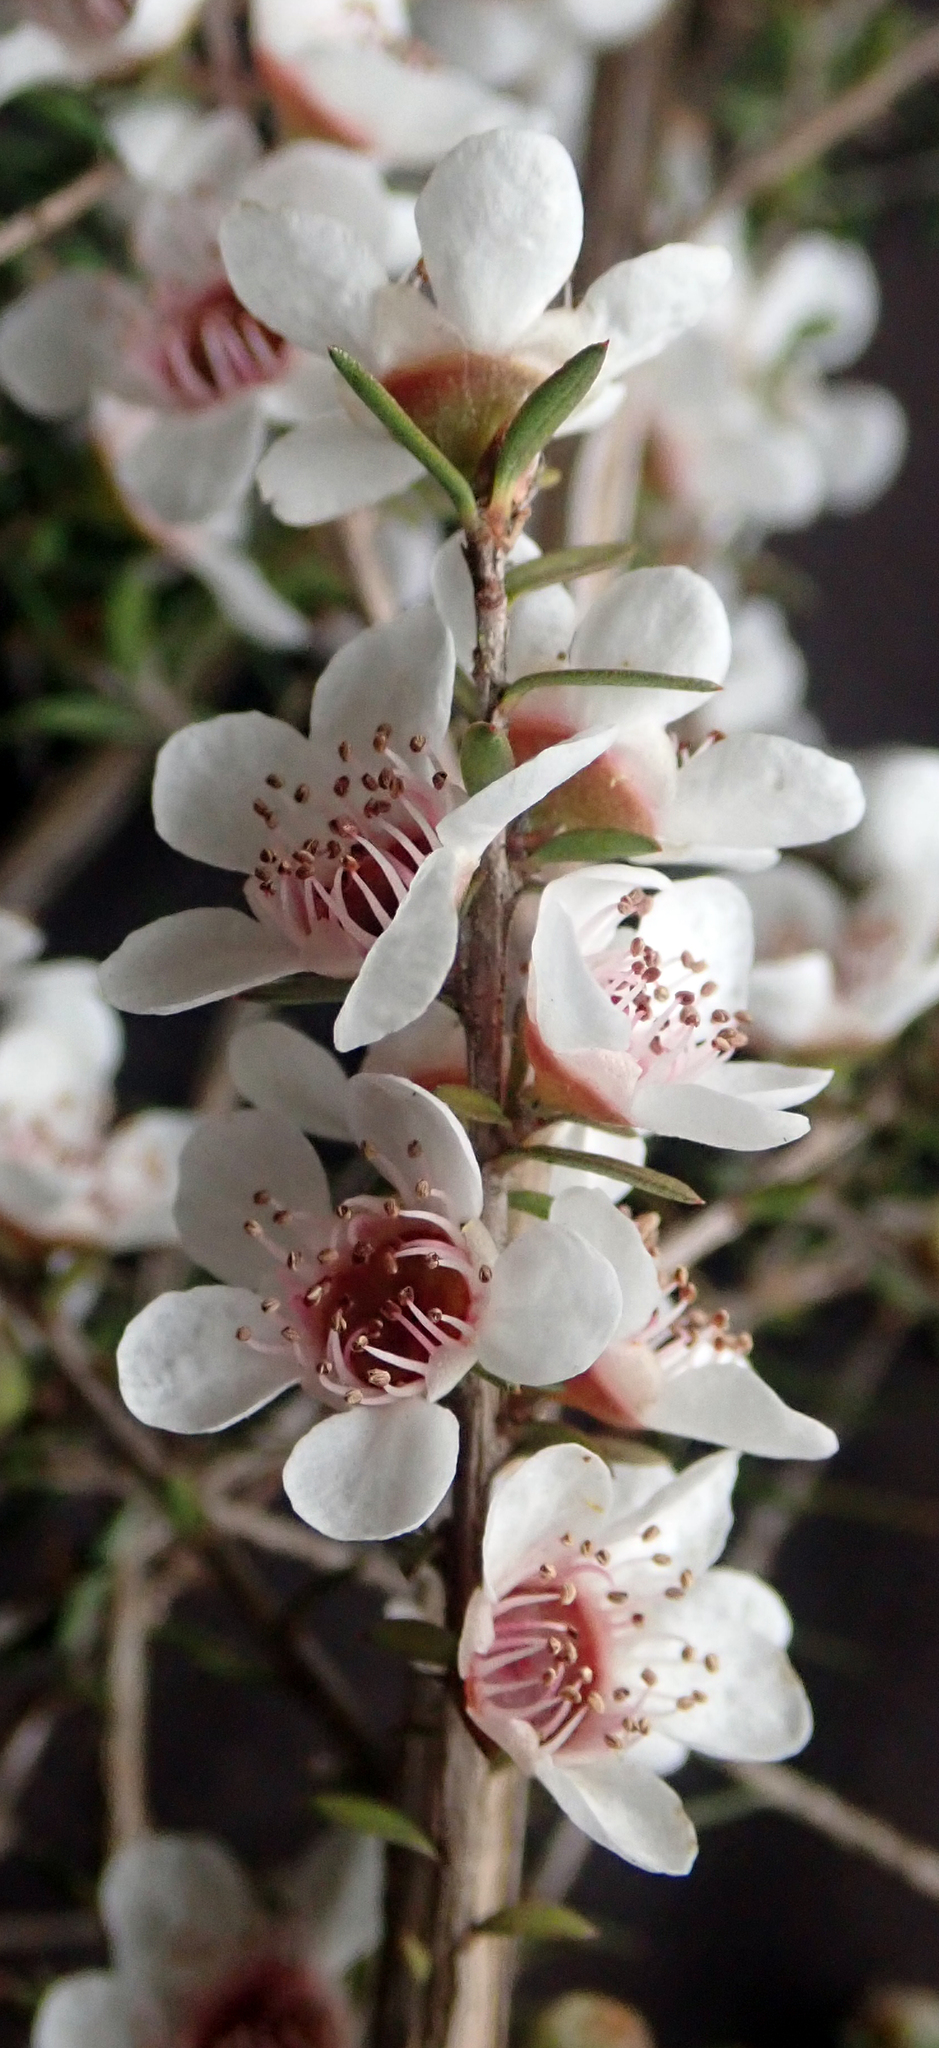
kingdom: Plantae
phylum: Tracheophyta
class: Magnoliopsida
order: Myrtales
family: Myrtaceae
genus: Leptospermum
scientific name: Leptospermum scoparium
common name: Broom tea-tree
